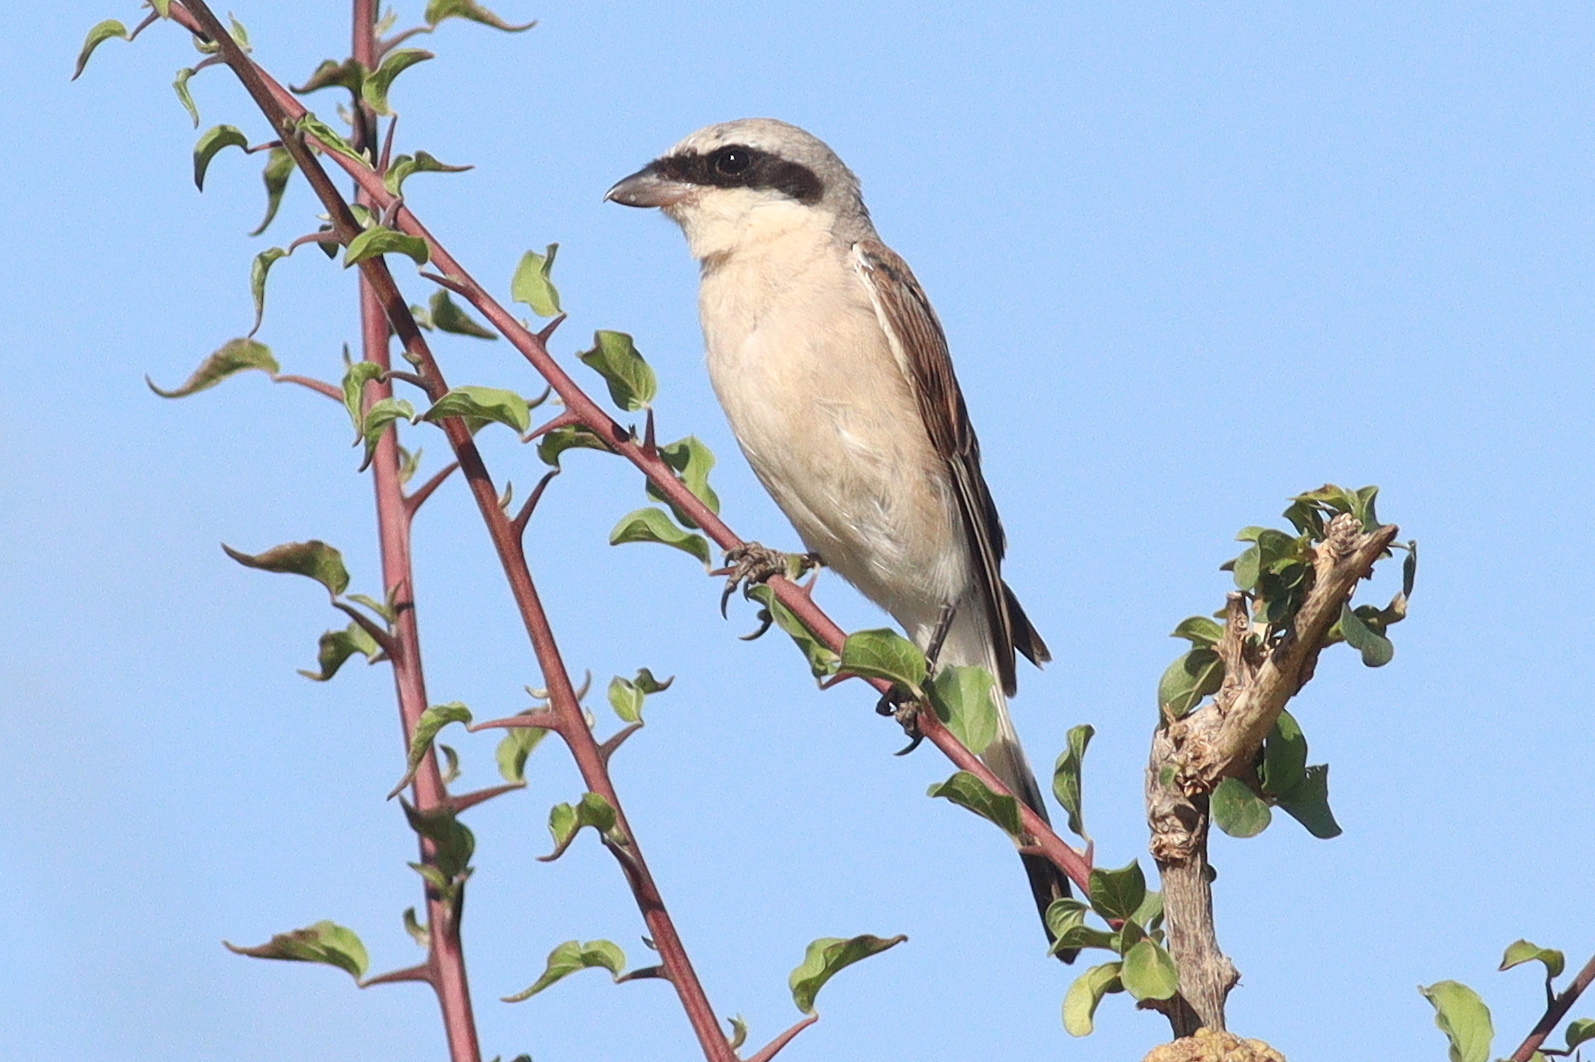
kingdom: Animalia
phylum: Chordata
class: Aves
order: Passeriformes
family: Laniidae
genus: Lanius
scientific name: Lanius collurio
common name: Red-backed shrike
